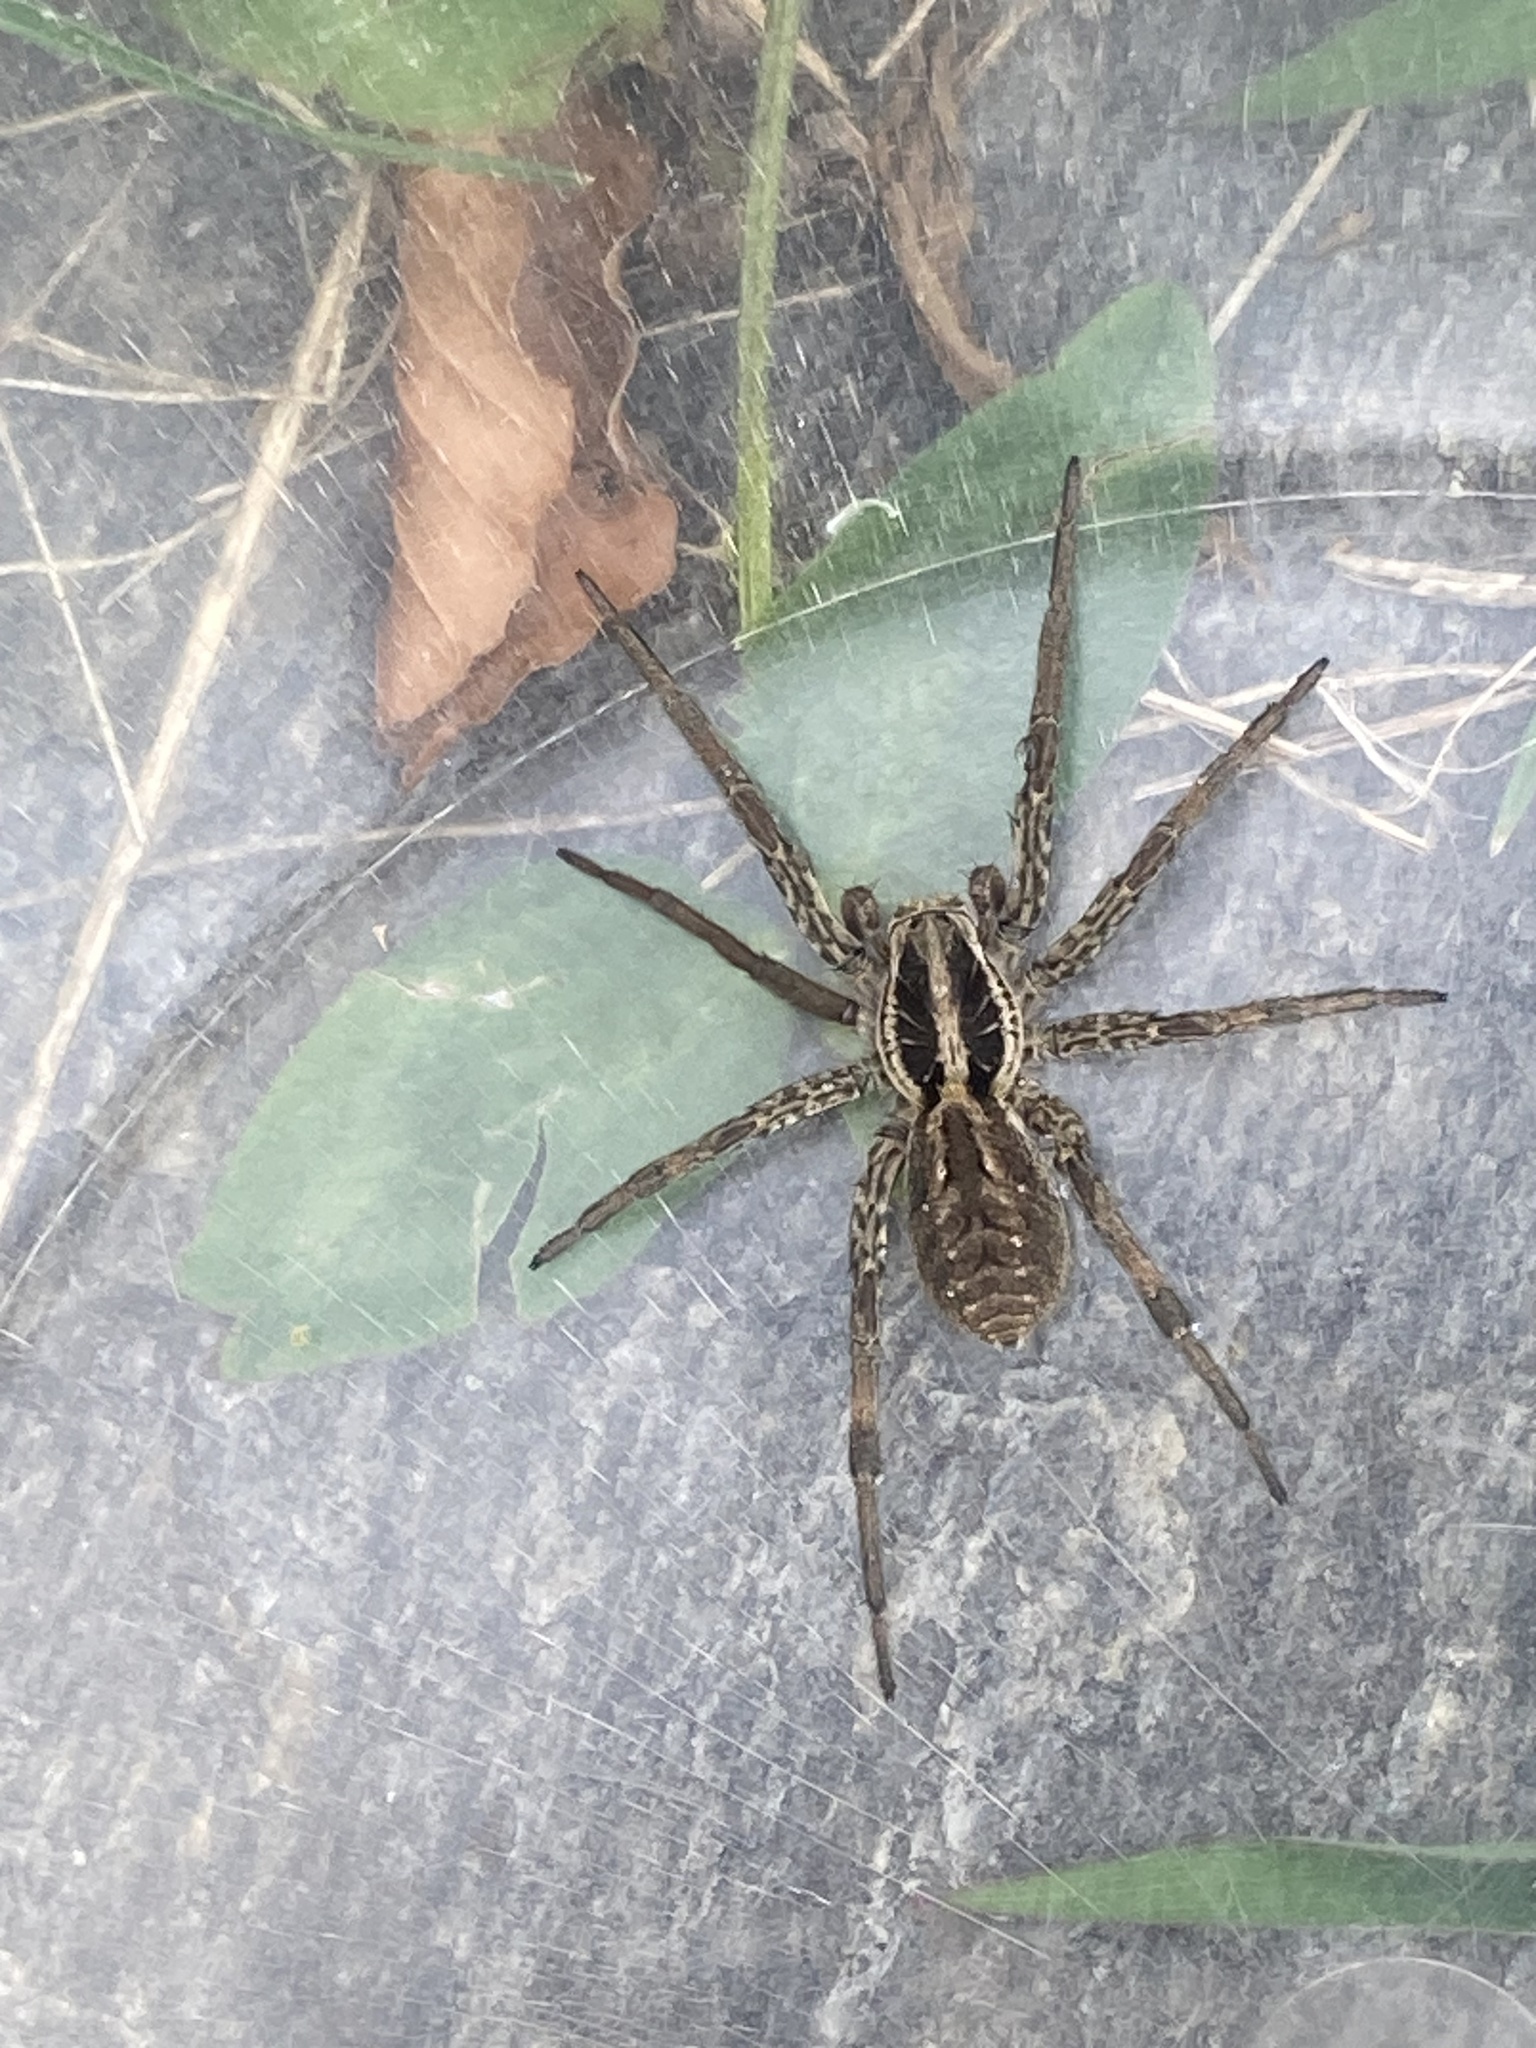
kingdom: Animalia
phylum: Arthropoda
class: Arachnida
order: Araneae
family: Lycosidae
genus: Hogna
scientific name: Hogna radiata
